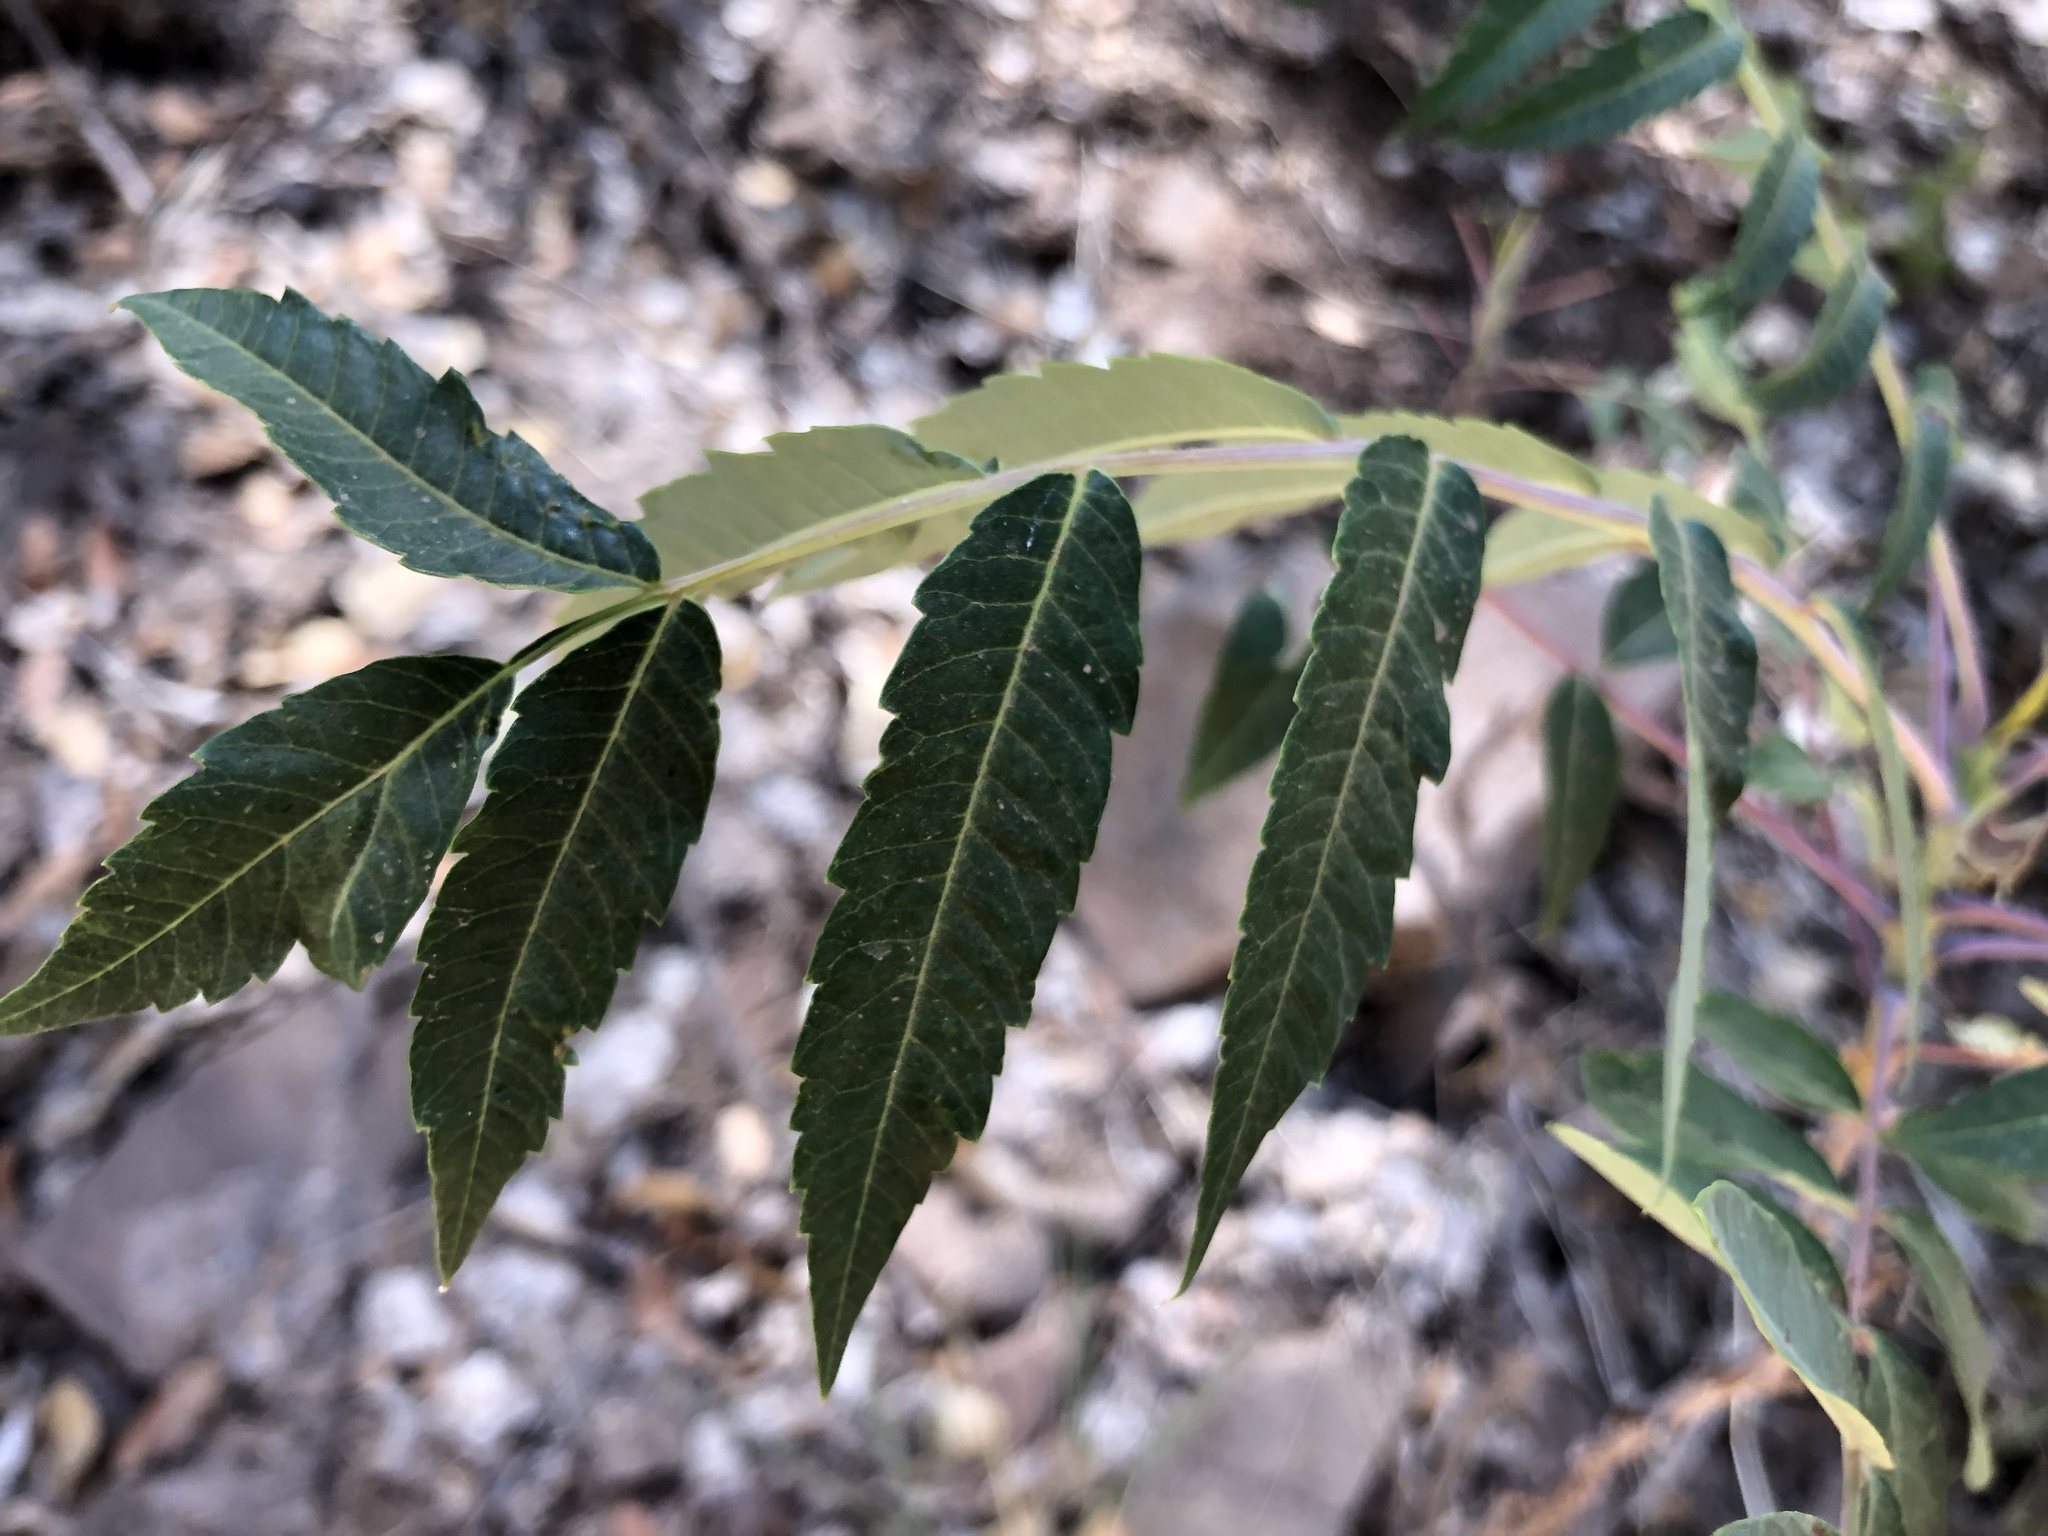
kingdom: Plantae
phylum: Tracheophyta
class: Magnoliopsida
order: Sapindales
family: Anacardiaceae
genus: Rhus
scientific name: Rhus glabra
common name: Scarlet sumac
